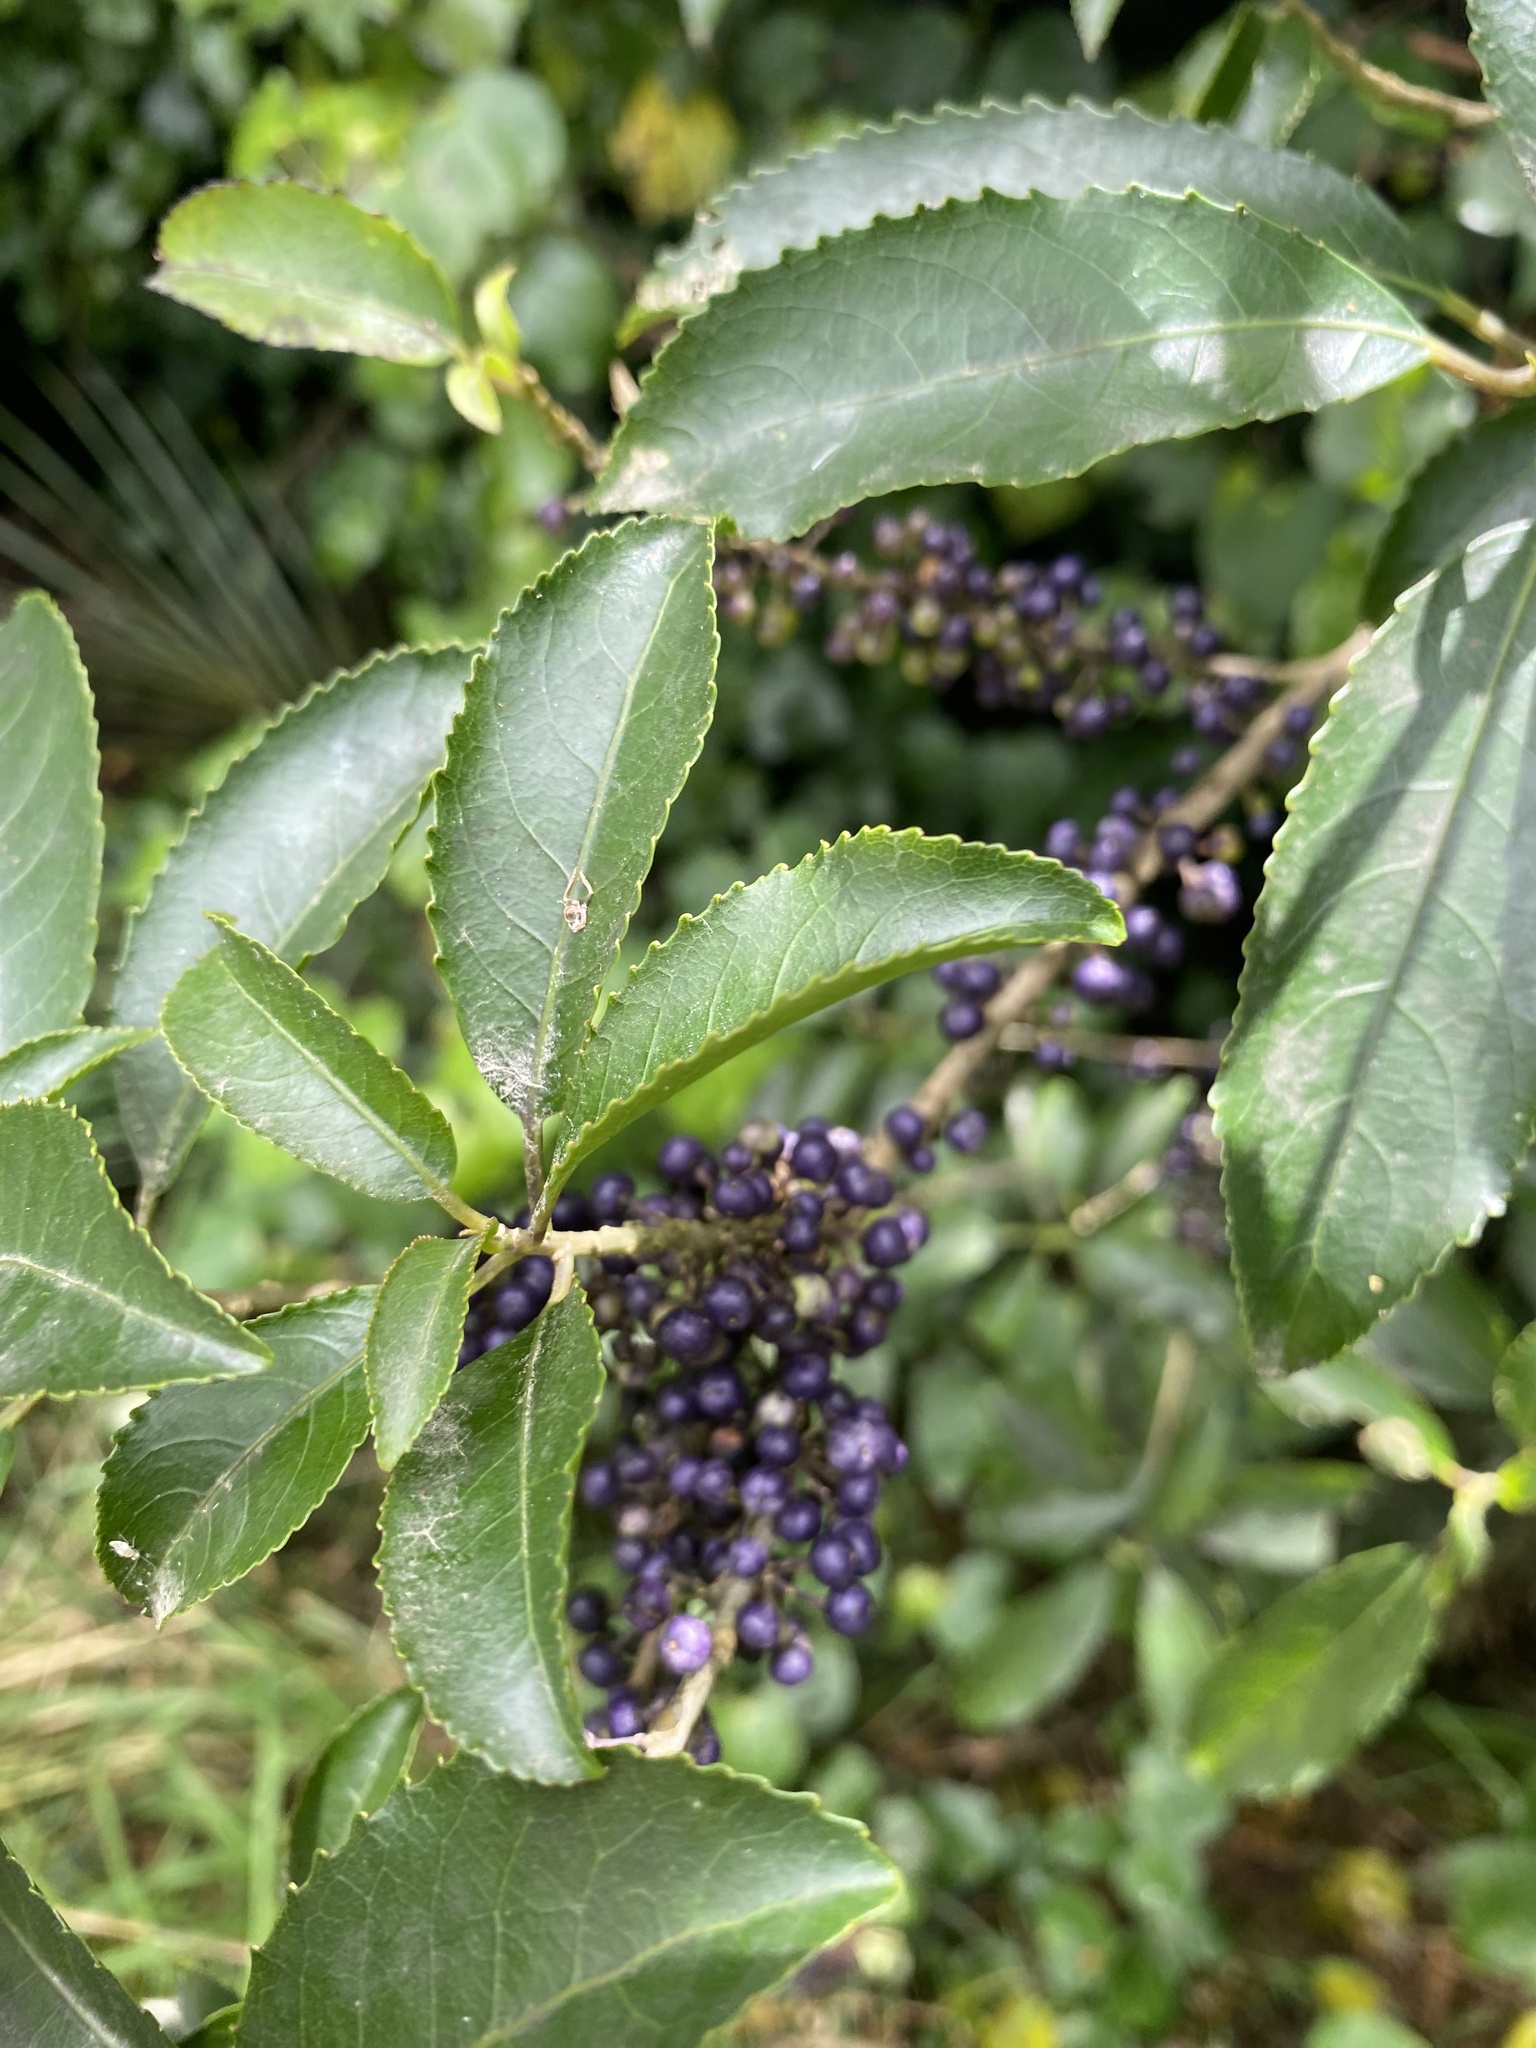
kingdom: Plantae
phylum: Tracheophyta
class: Magnoliopsida
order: Malpighiales
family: Violaceae
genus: Melicytus
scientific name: Melicytus ramiflorus
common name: Mahoe
